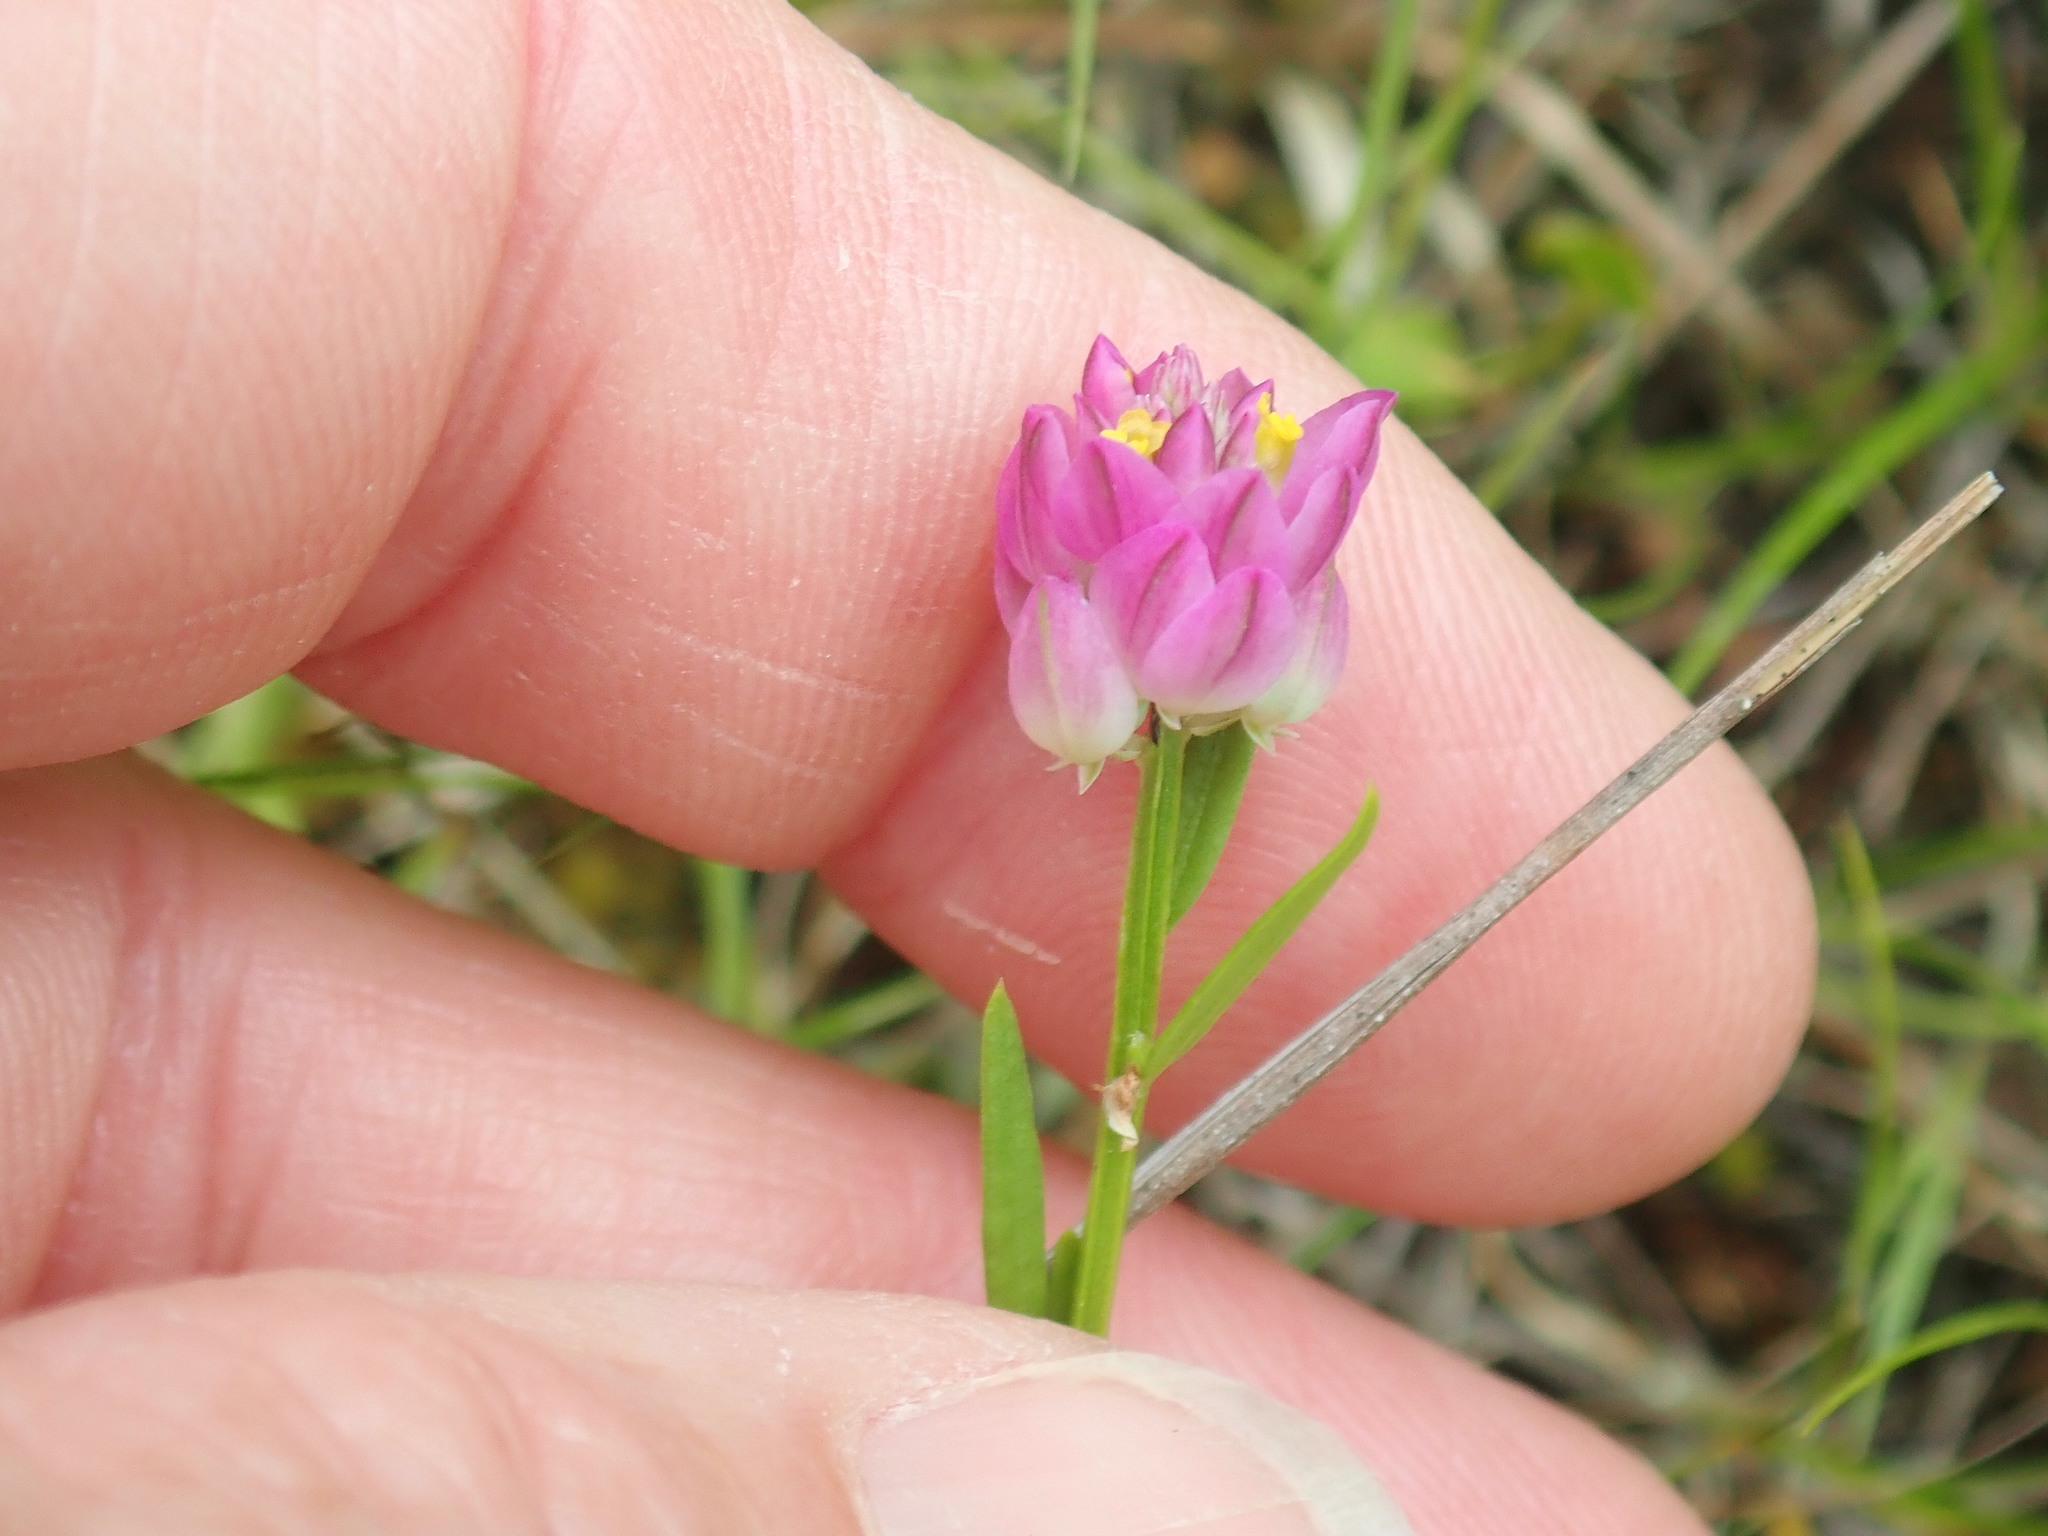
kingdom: Plantae
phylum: Tracheophyta
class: Magnoliopsida
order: Fabales
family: Polygalaceae
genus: Polygala
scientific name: Polygala sanguinea
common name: Blood milkwort
